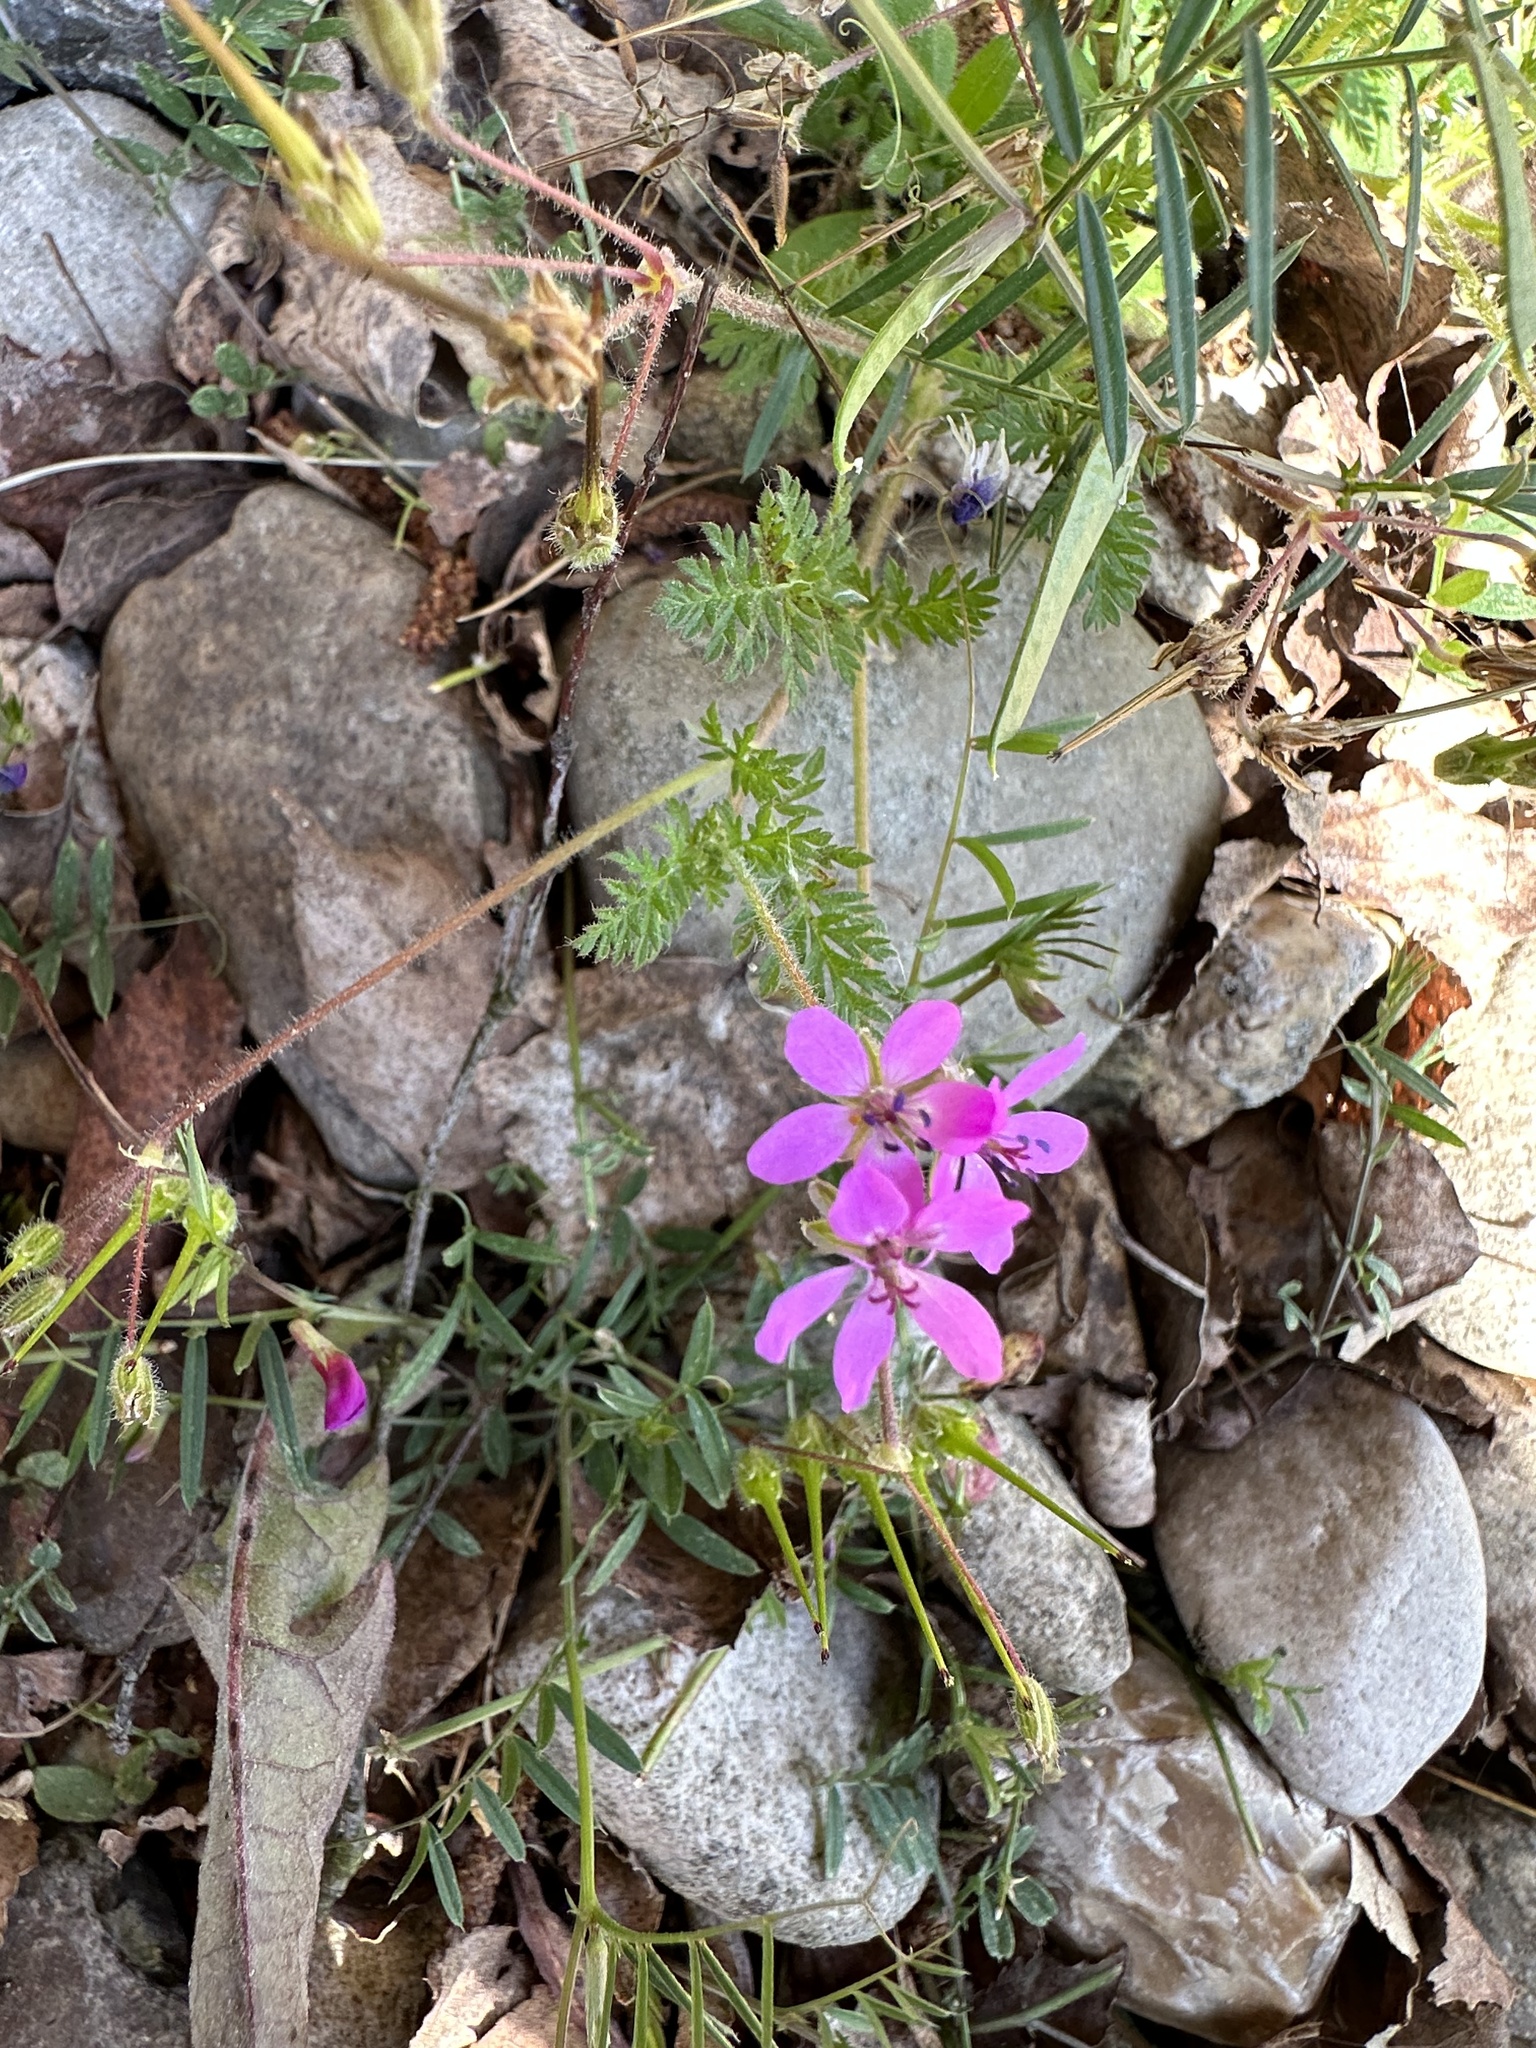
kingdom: Plantae
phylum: Tracheophyta
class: Magnoliopsida
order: Geraniales
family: Geraniaceae
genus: Erodium
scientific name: Erodium cicutarium
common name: Common stork's-bill
